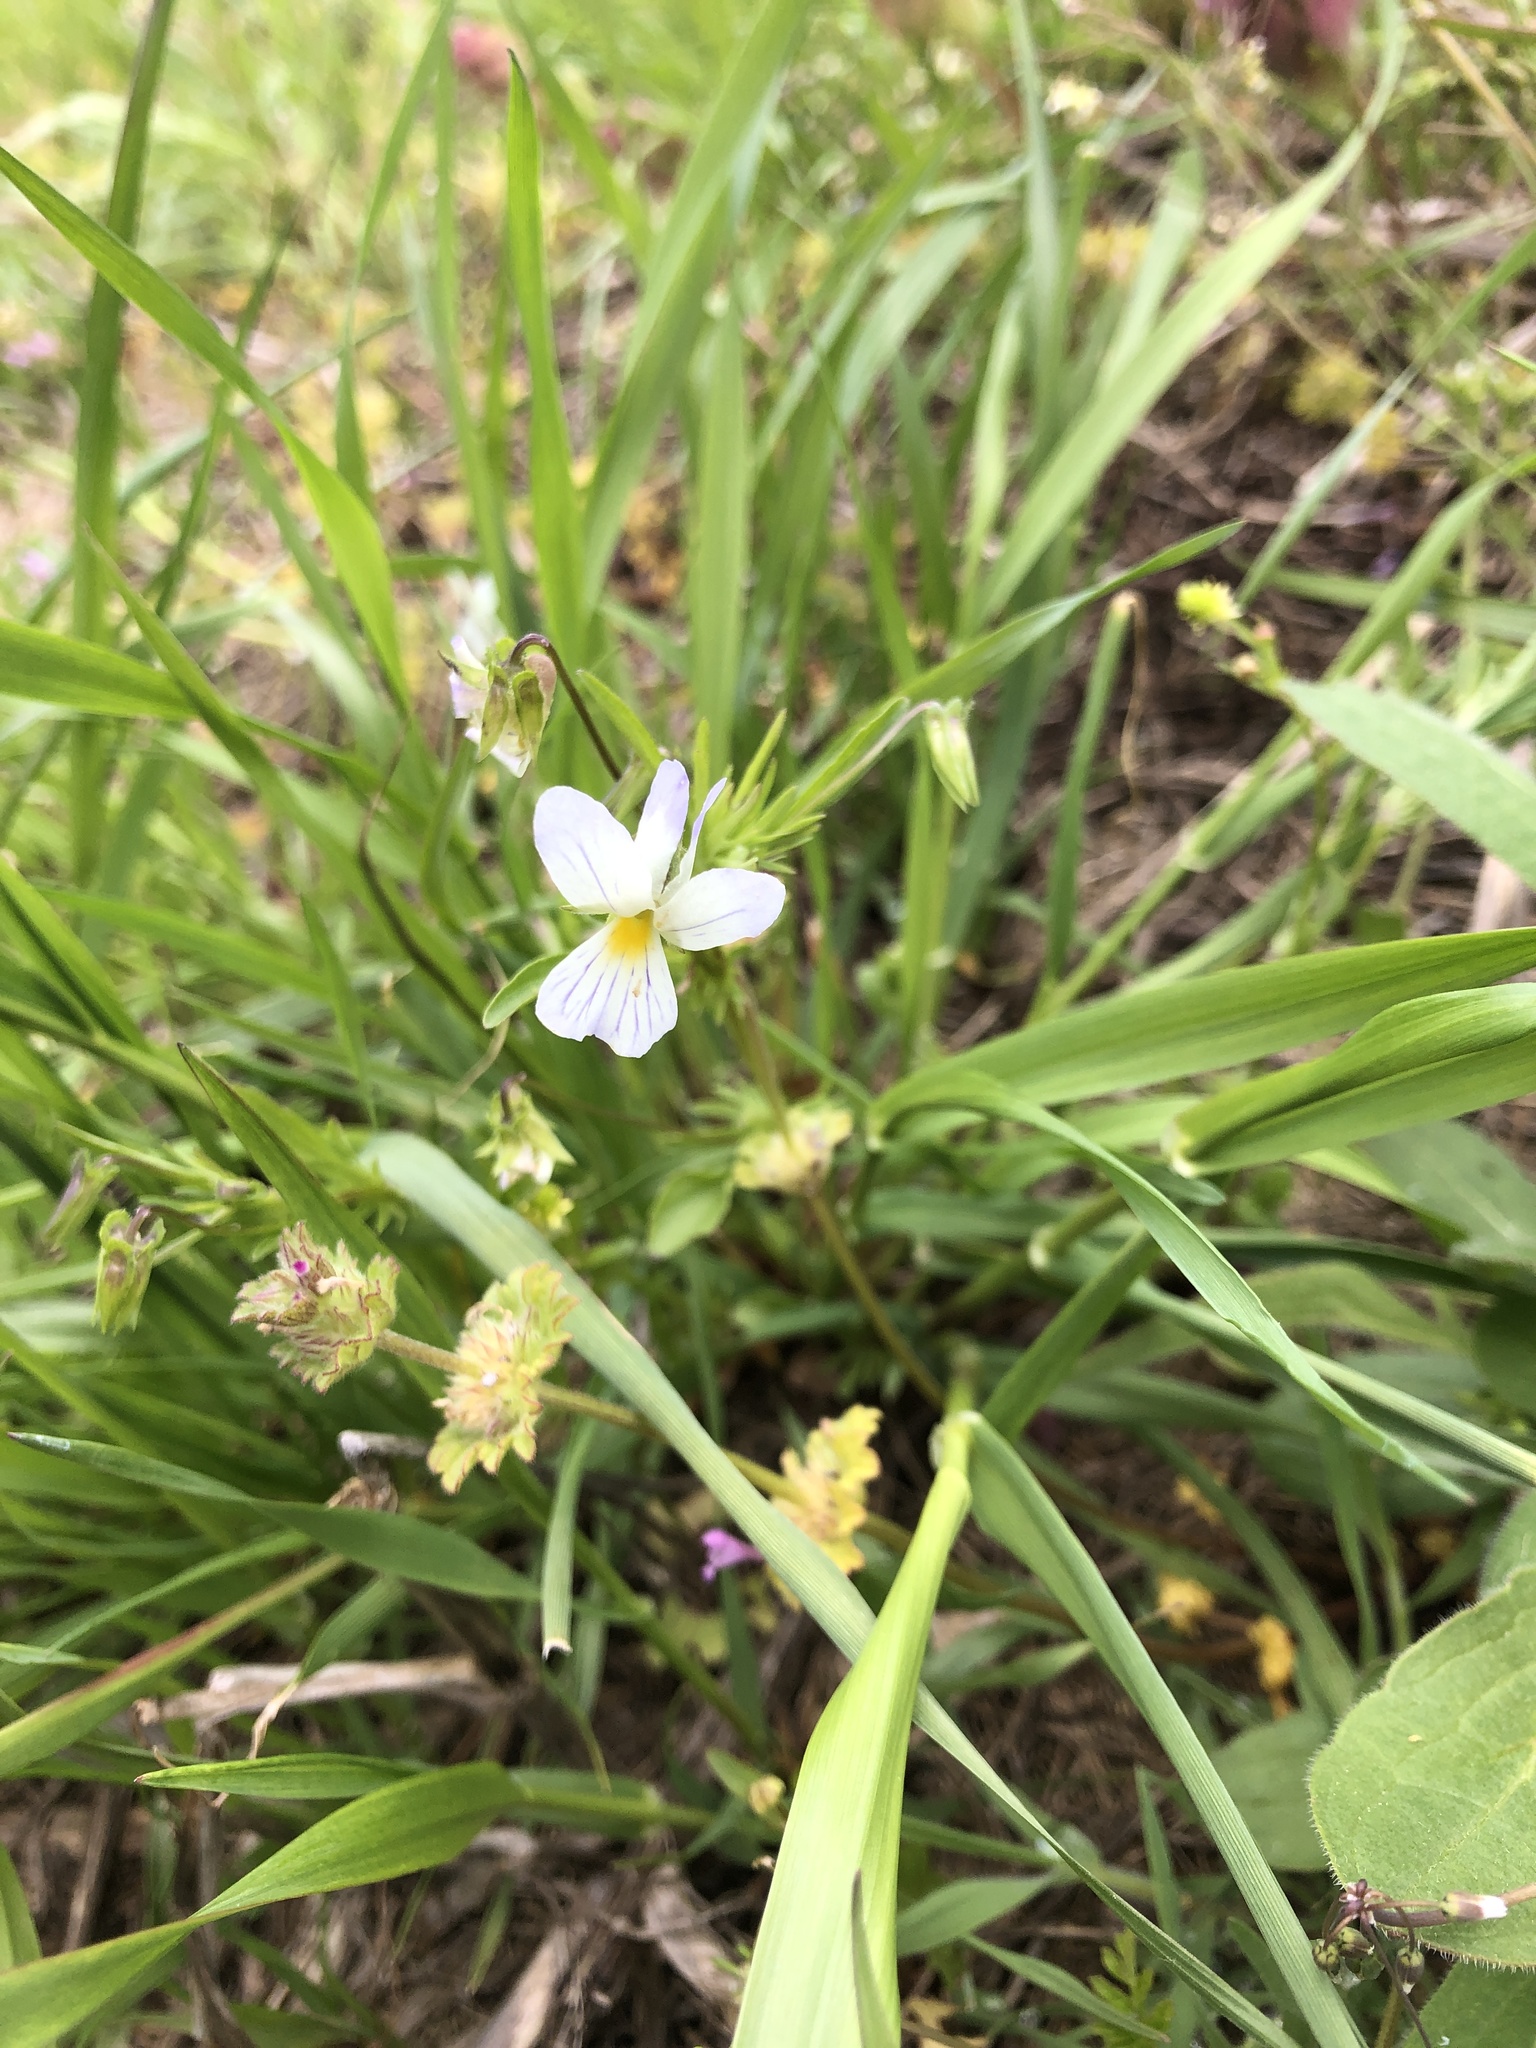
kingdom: Plantae
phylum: Tracheophyta
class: Magnoliopsida
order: Malpighiales
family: Violaceae
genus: Viola
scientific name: Viola rafinesquei
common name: American field pansy
